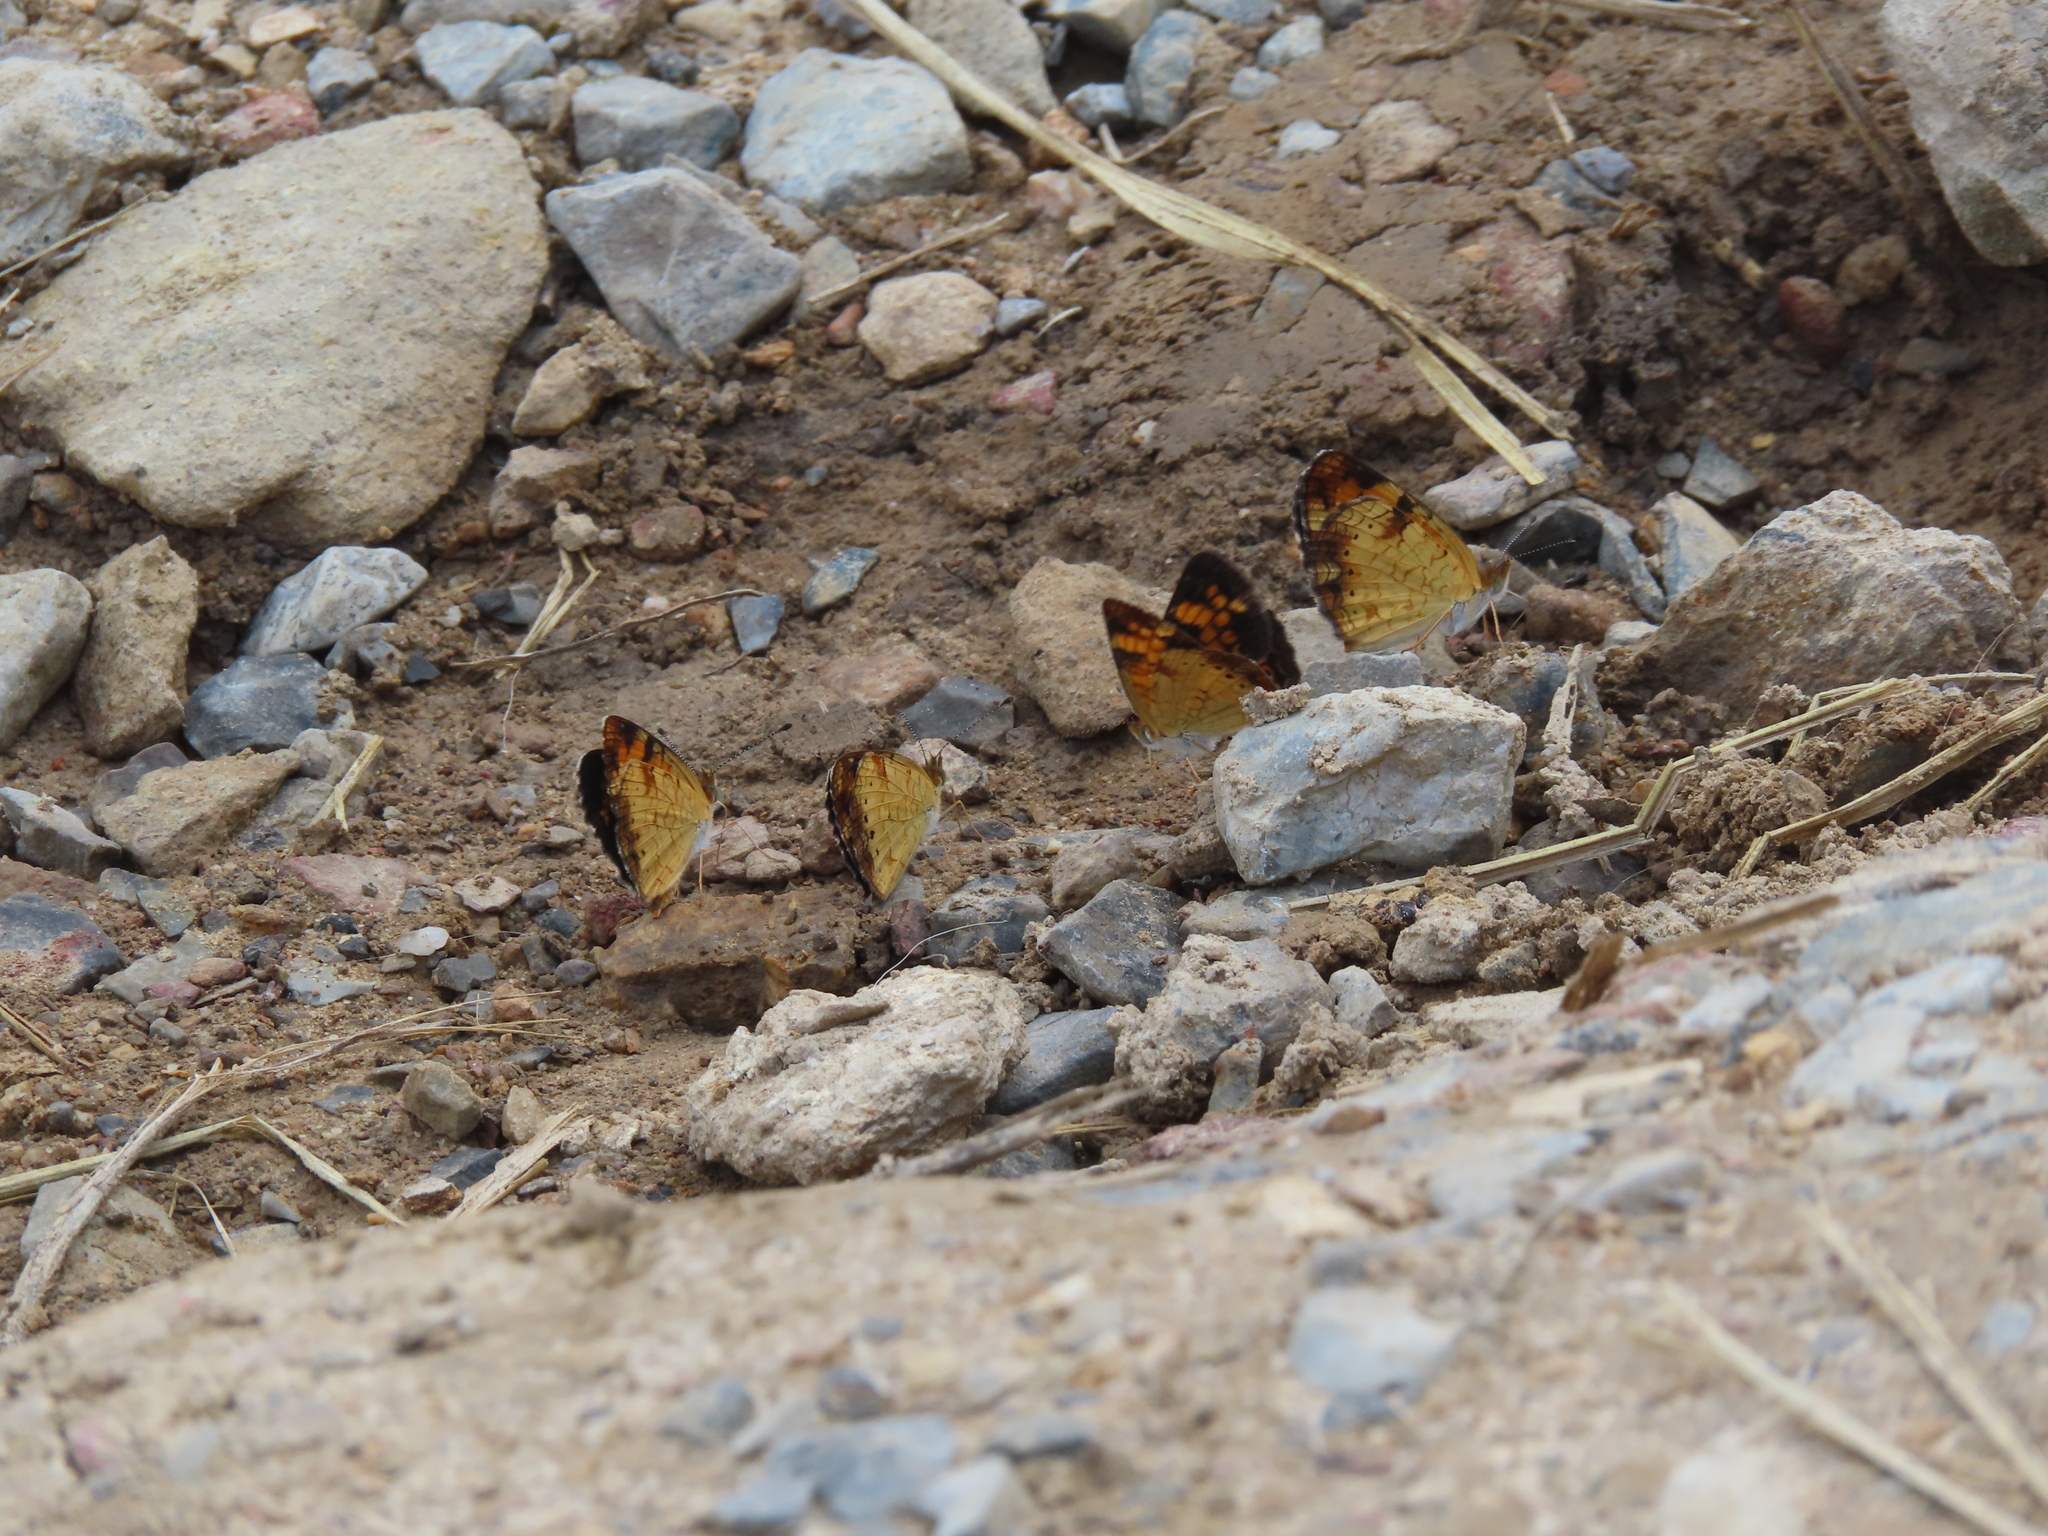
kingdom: Animalia
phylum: Arthropoda
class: Insecta
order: Lepidoptera
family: Nymphalidae
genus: Phyciodes
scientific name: Phyciodes tharos
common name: Pearl crescent
